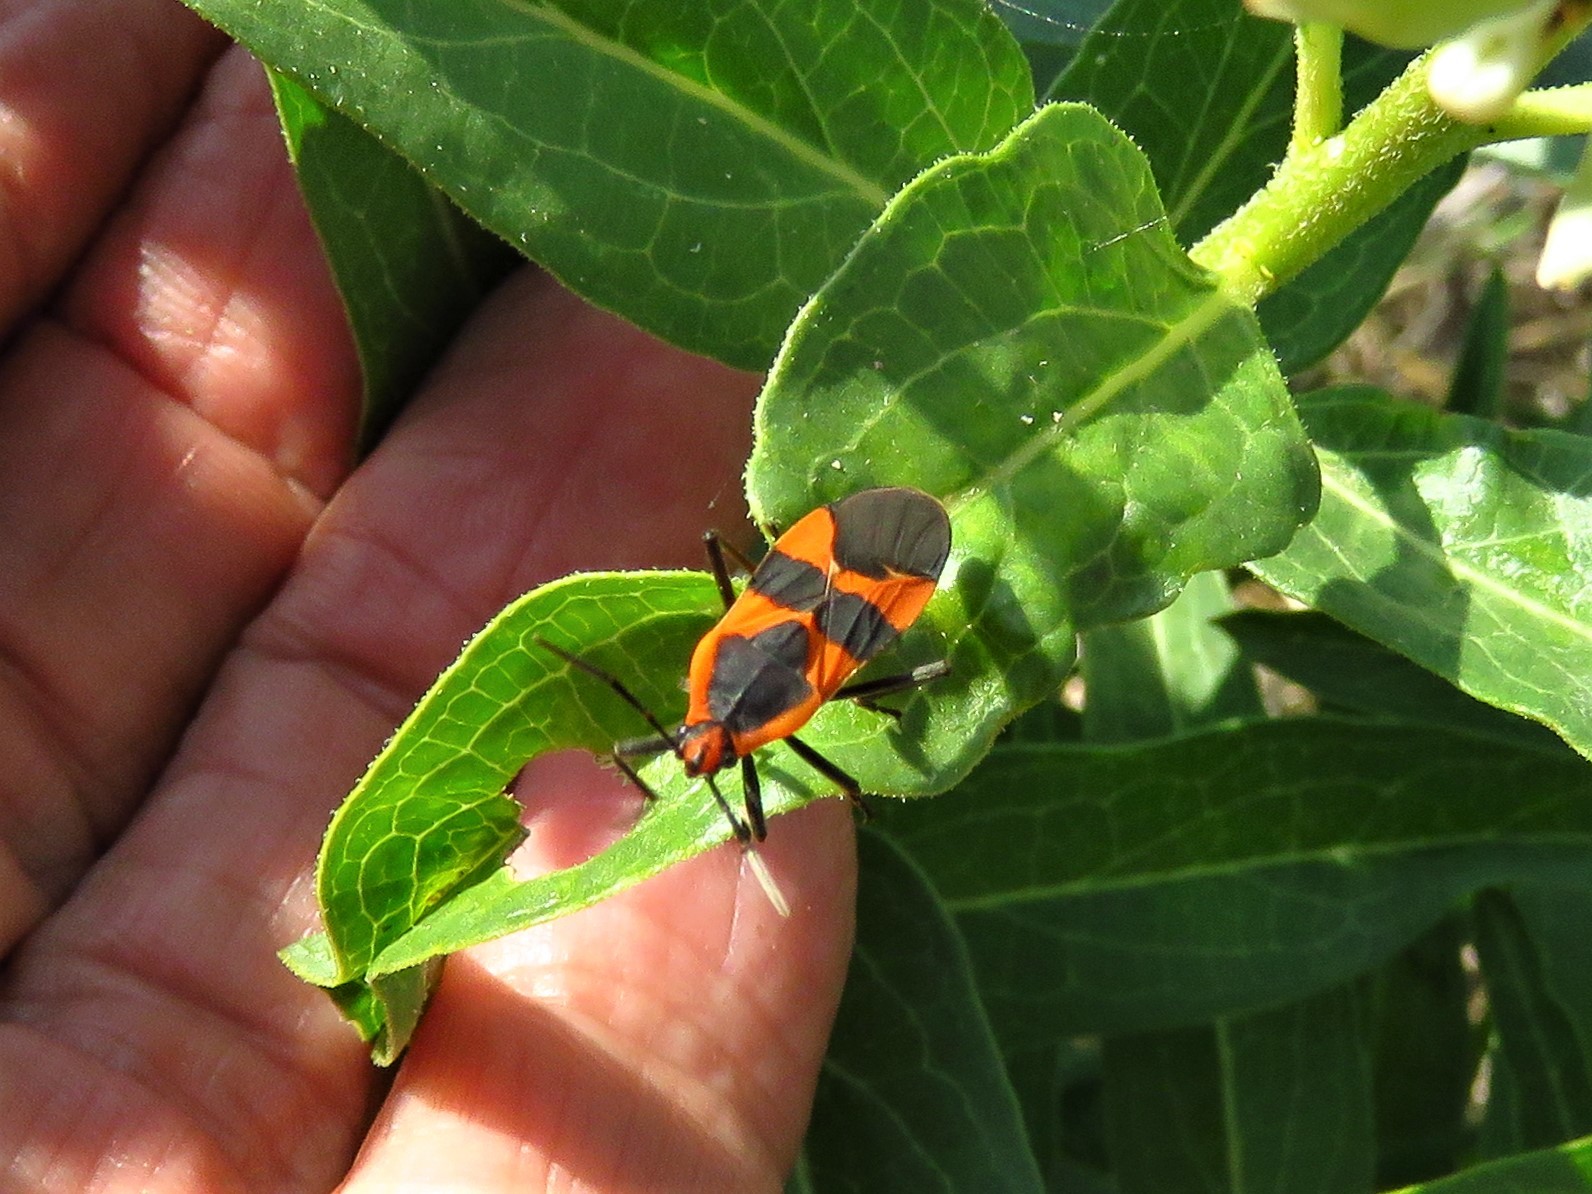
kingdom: Animalia
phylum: Arthropoda
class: Insecta
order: Hemiptera
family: Lygaeidae
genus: Oncopeltus
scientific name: Oncopeltus fasciatus
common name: Large milkweed bug
